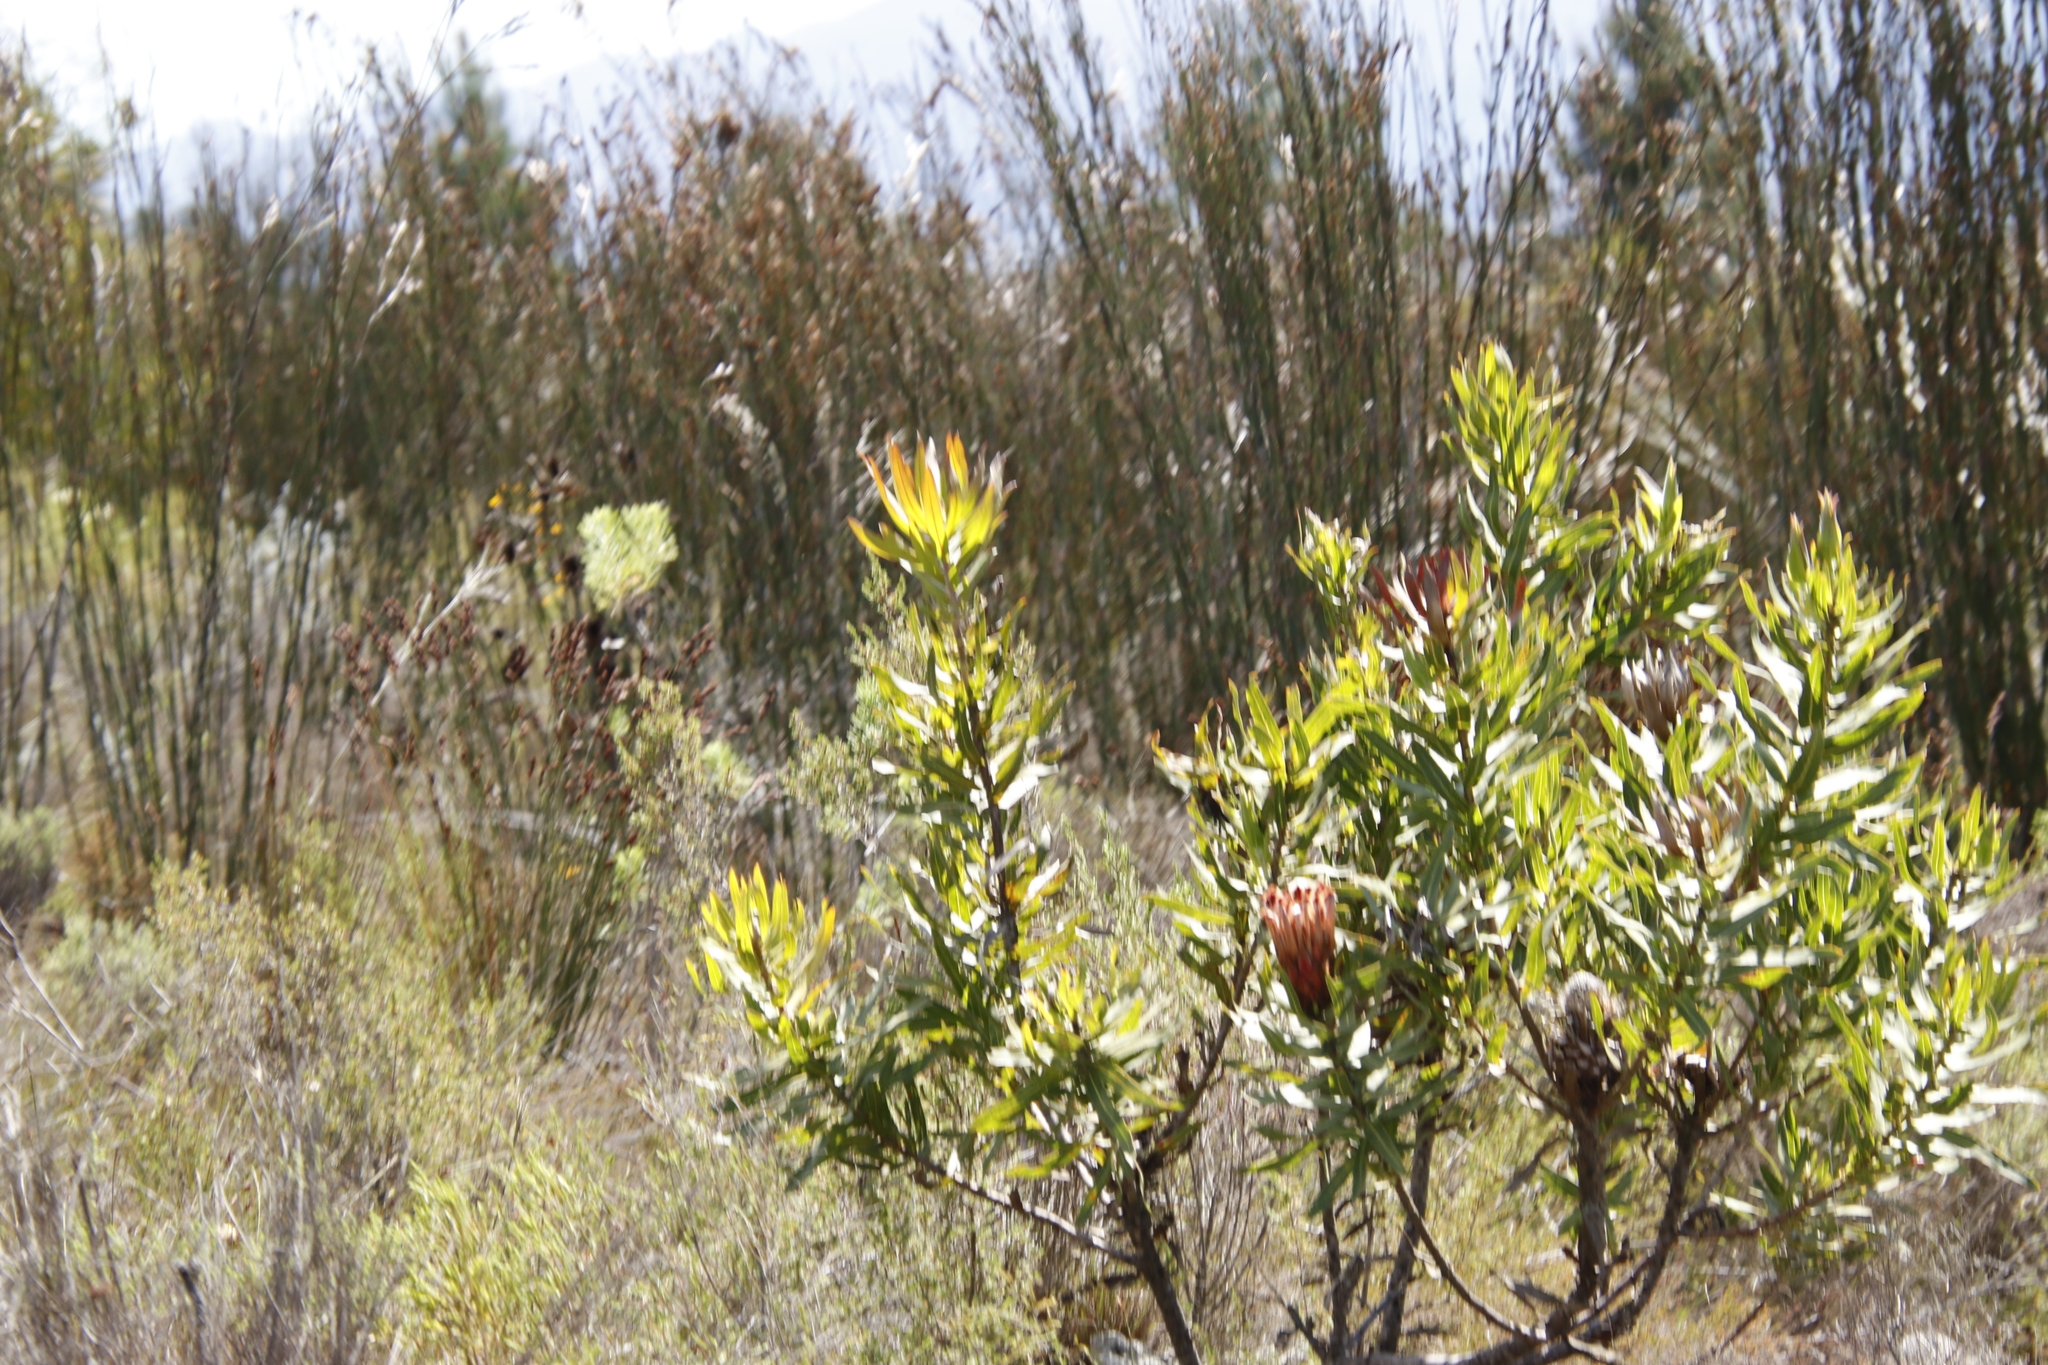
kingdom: Plantae
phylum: Tracheophyta
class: Magnoliopsida
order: Proteales
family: Proteaceae
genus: Protea
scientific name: Protea
